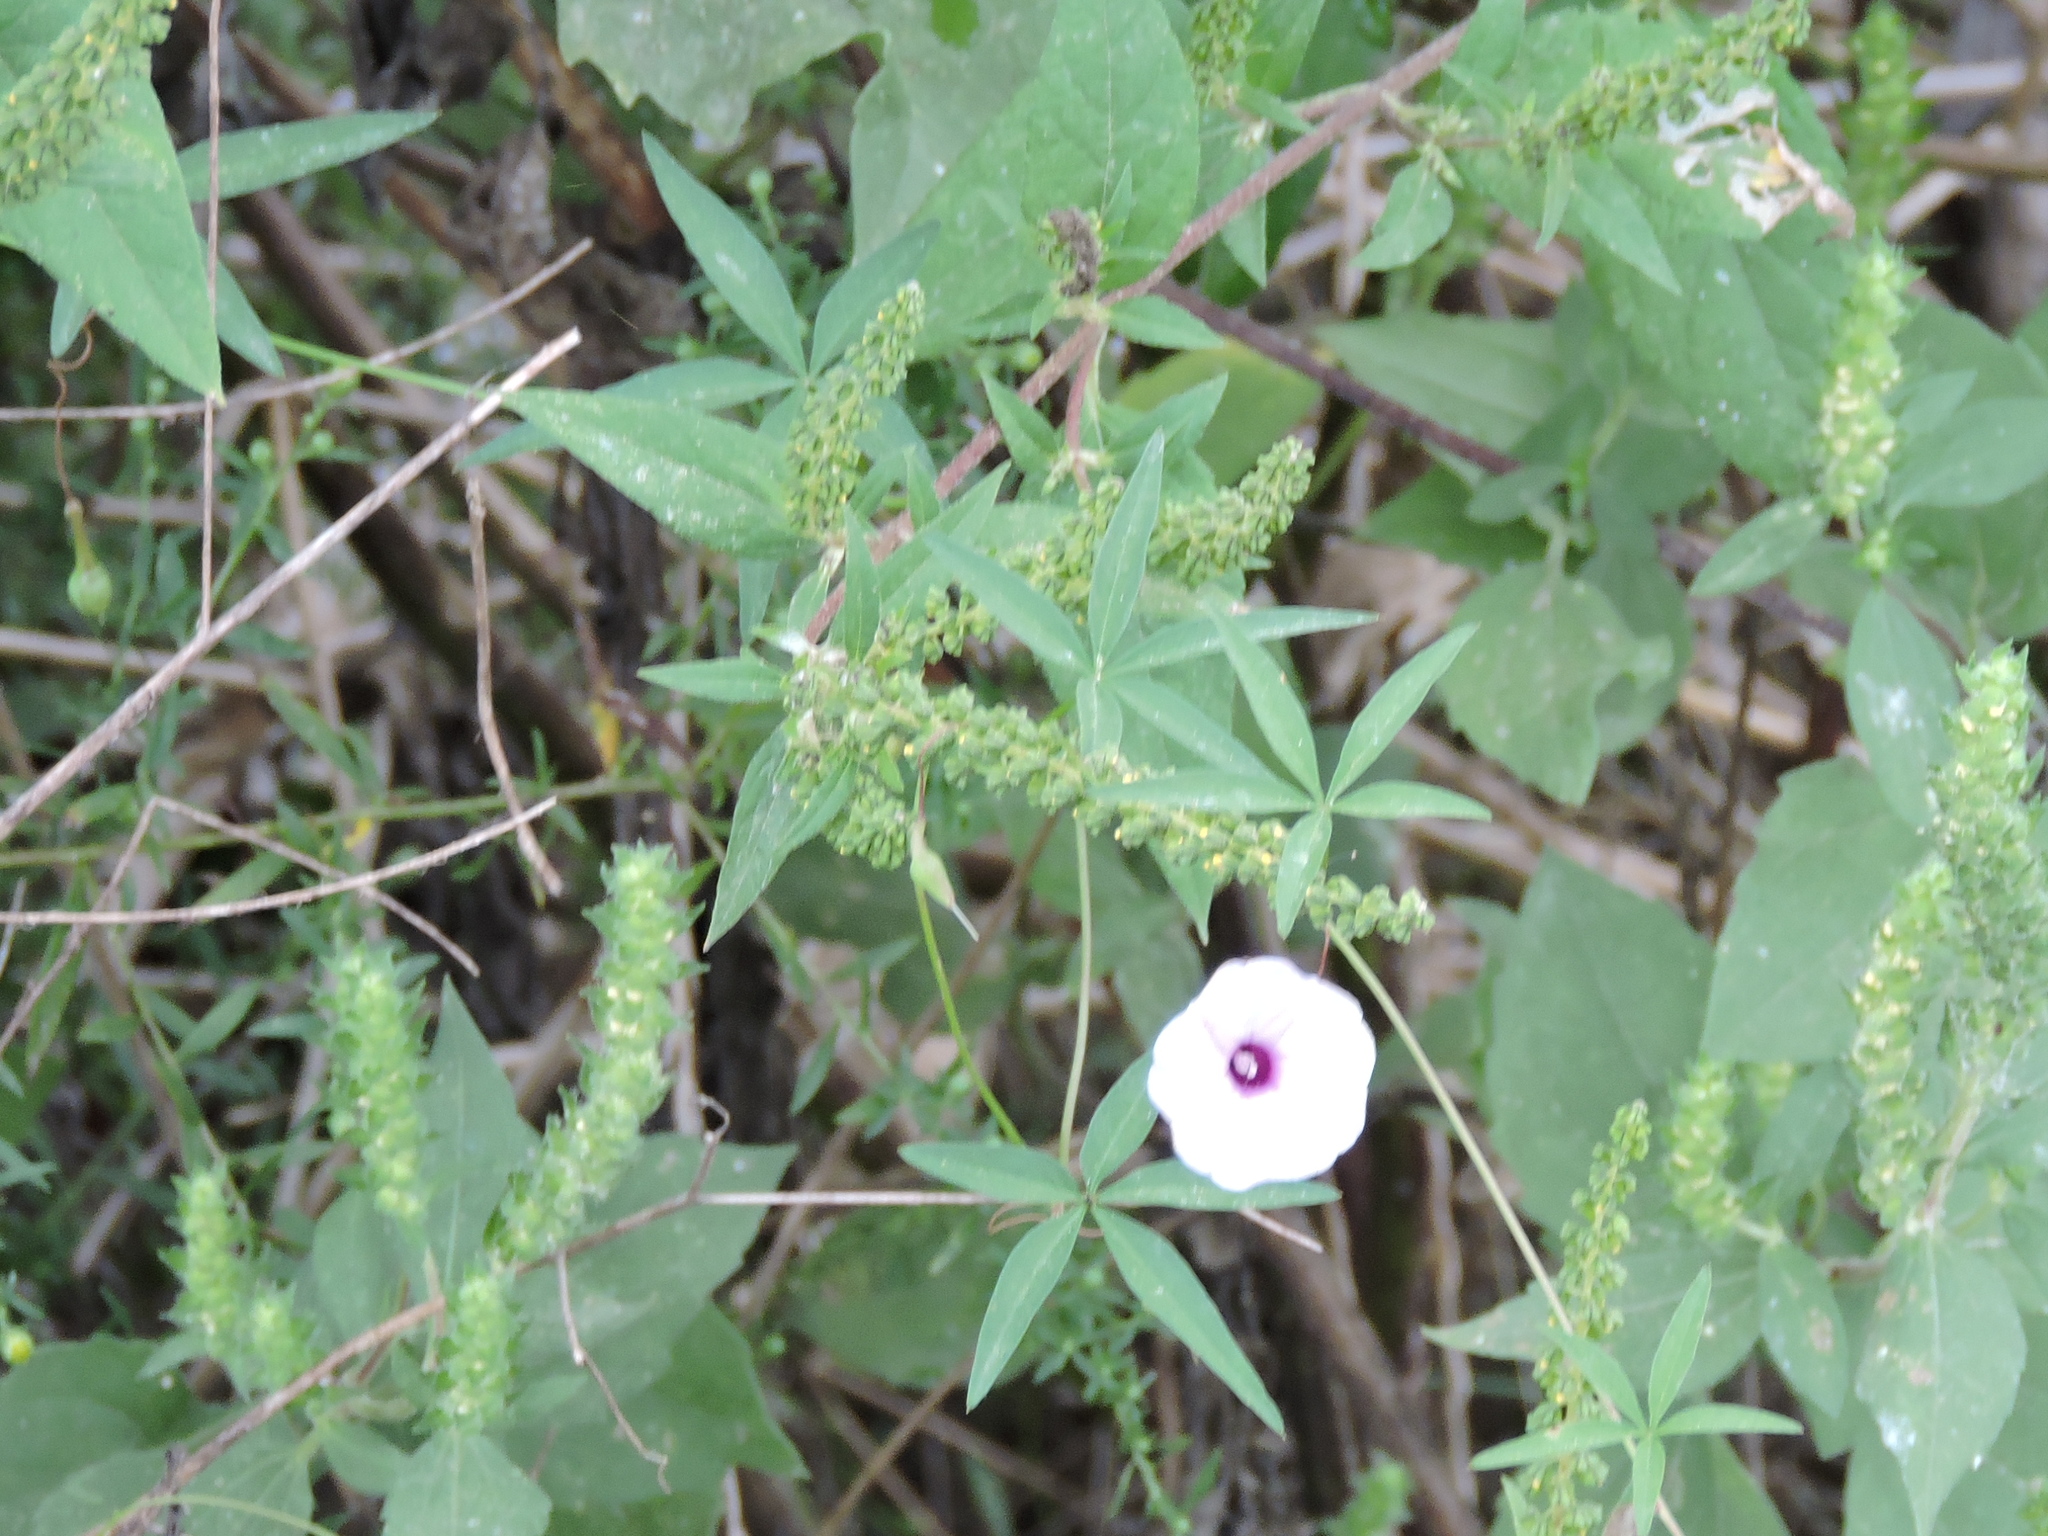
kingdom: Plantae
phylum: Tracheophyta
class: Magnoliopsida
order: Solanales
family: Convolvulaceae
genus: Ipomoea
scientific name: Ipomoea heptaphylla
